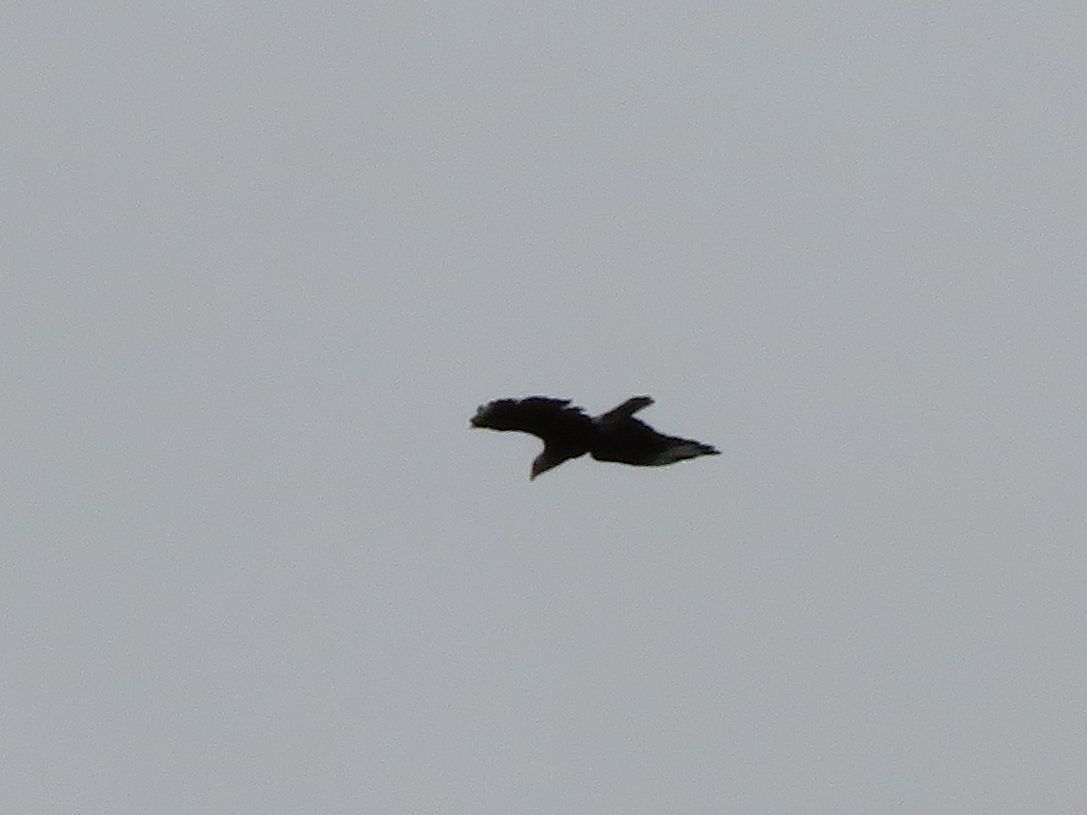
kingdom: Animalia
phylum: Chordata
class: Aves
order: Falconiformes
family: Falconidae
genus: Caracara
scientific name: Caracara plancus
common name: Southern caracara
